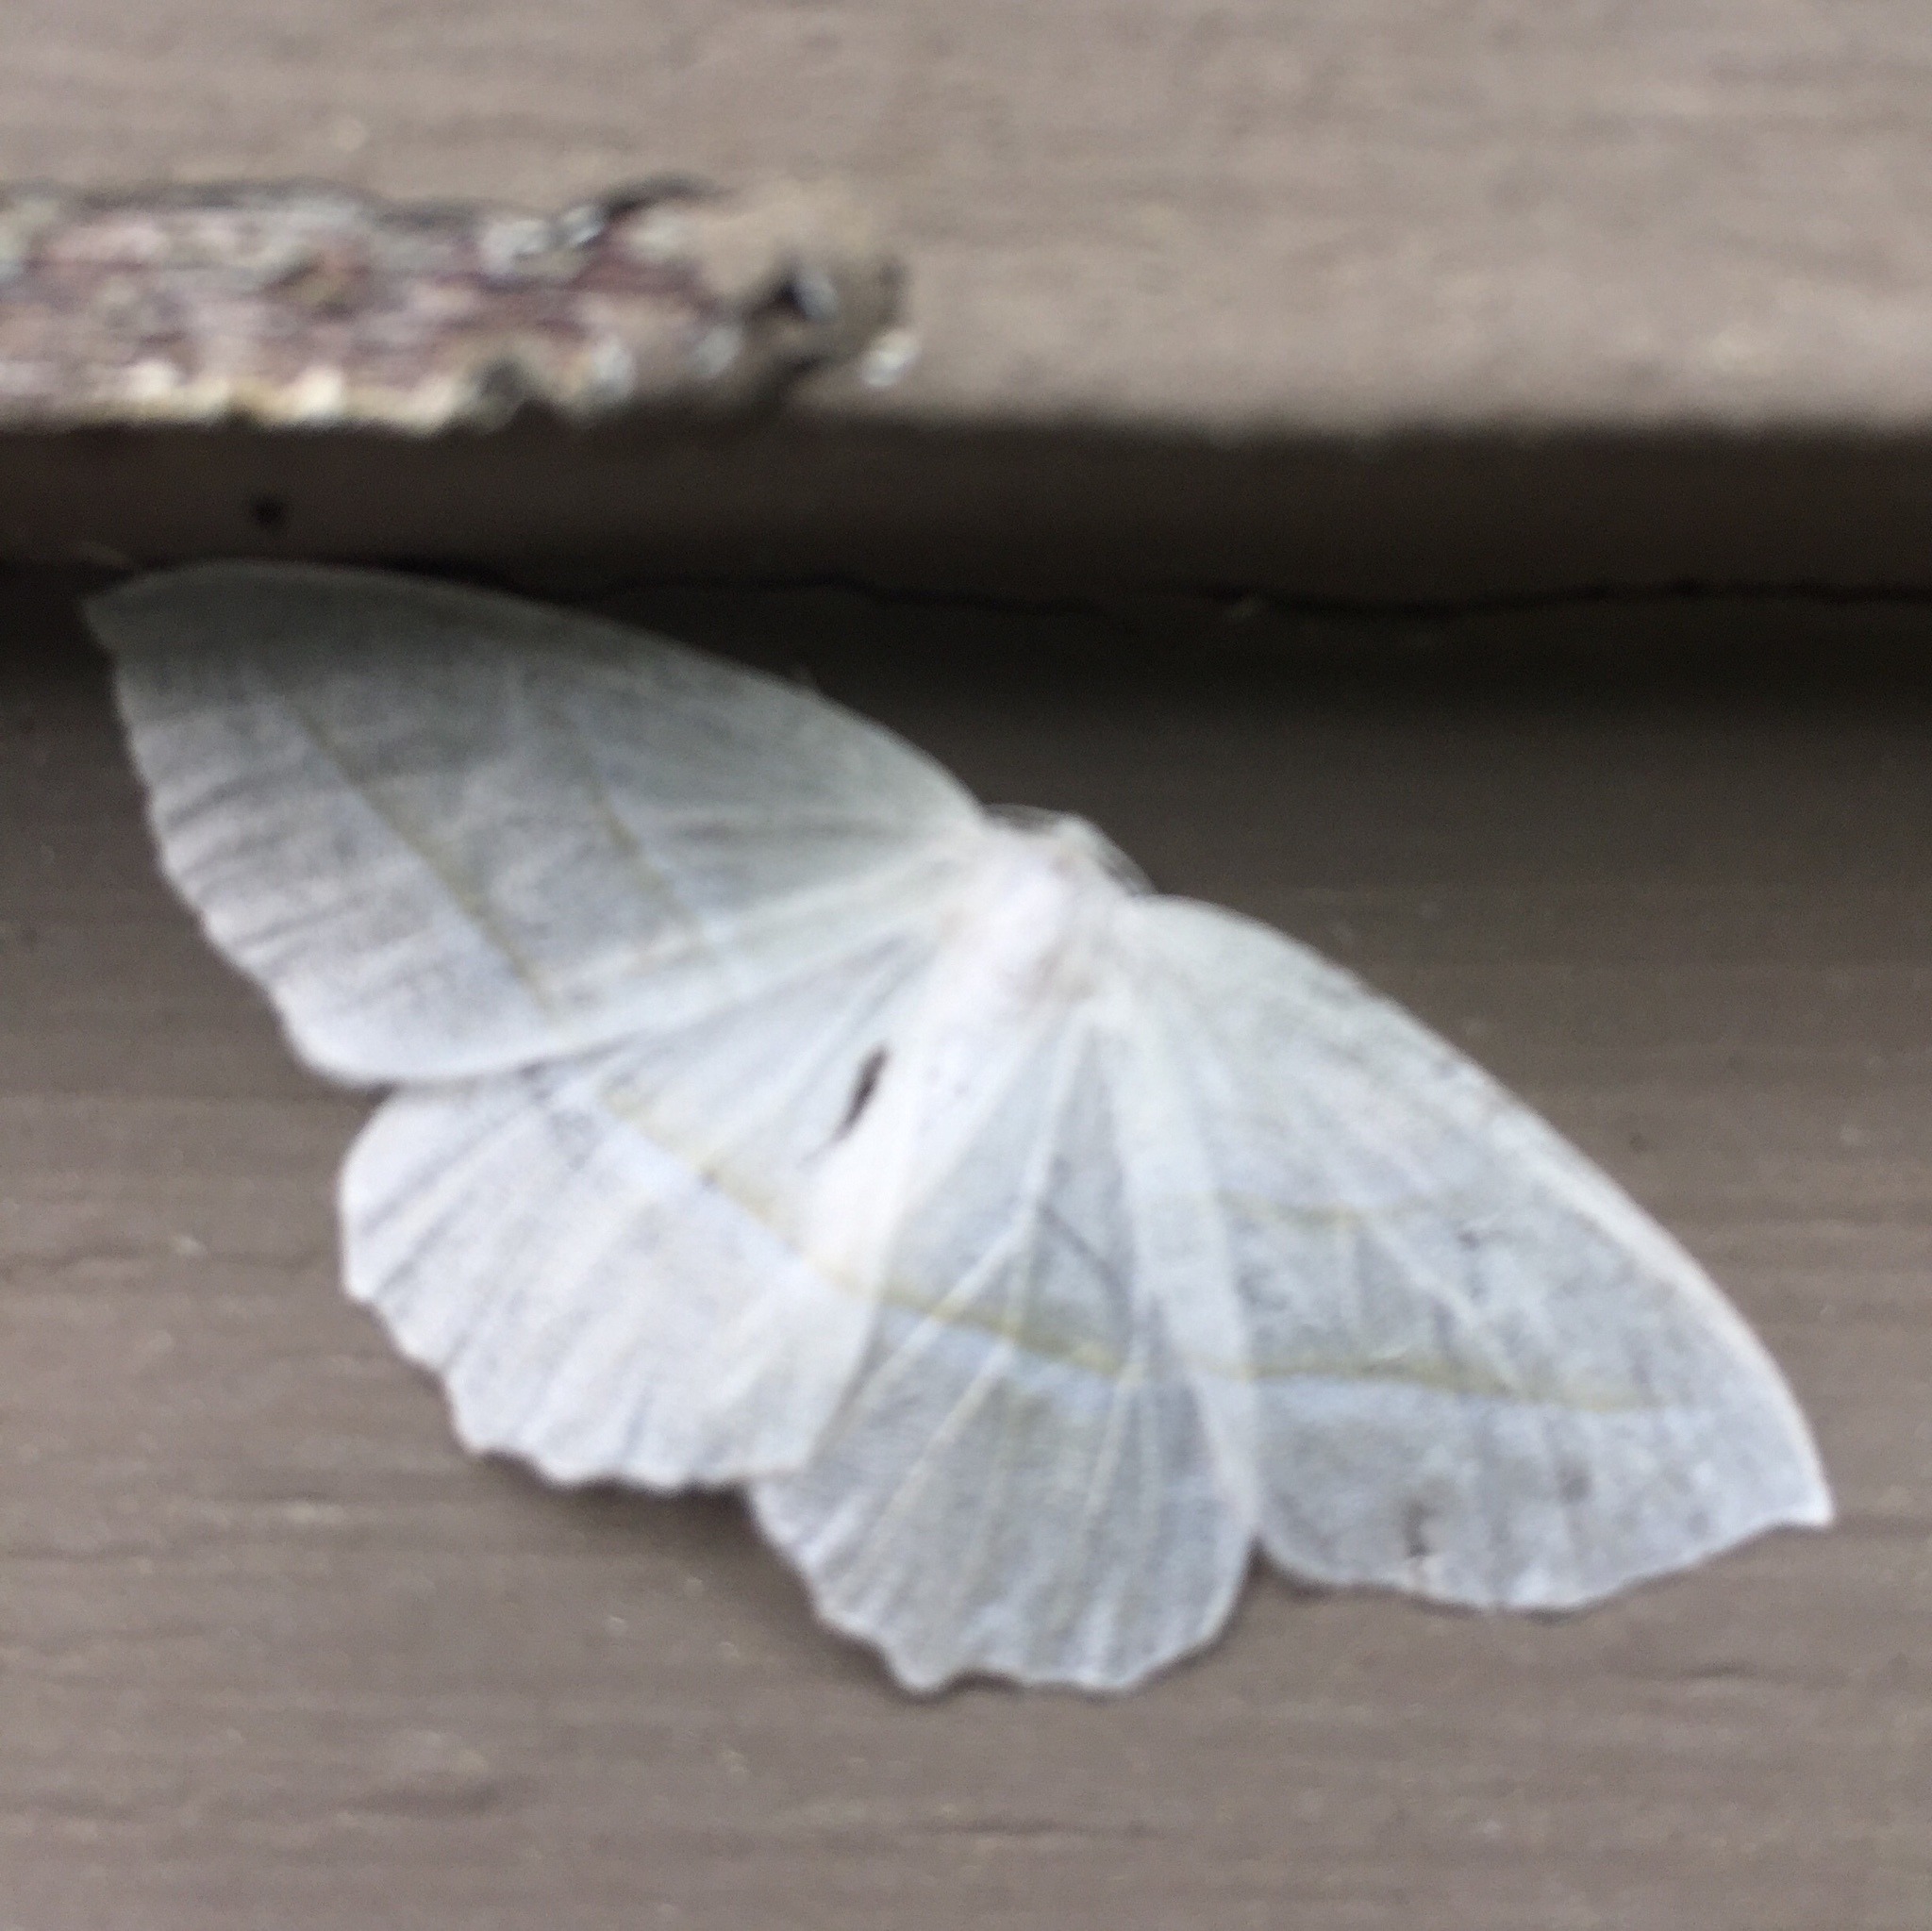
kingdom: Animalia
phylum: Arthropoda
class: Insecta
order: Lepidoptera
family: Geometridae
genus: Campaea
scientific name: Campaea perlata
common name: Fringed looper
